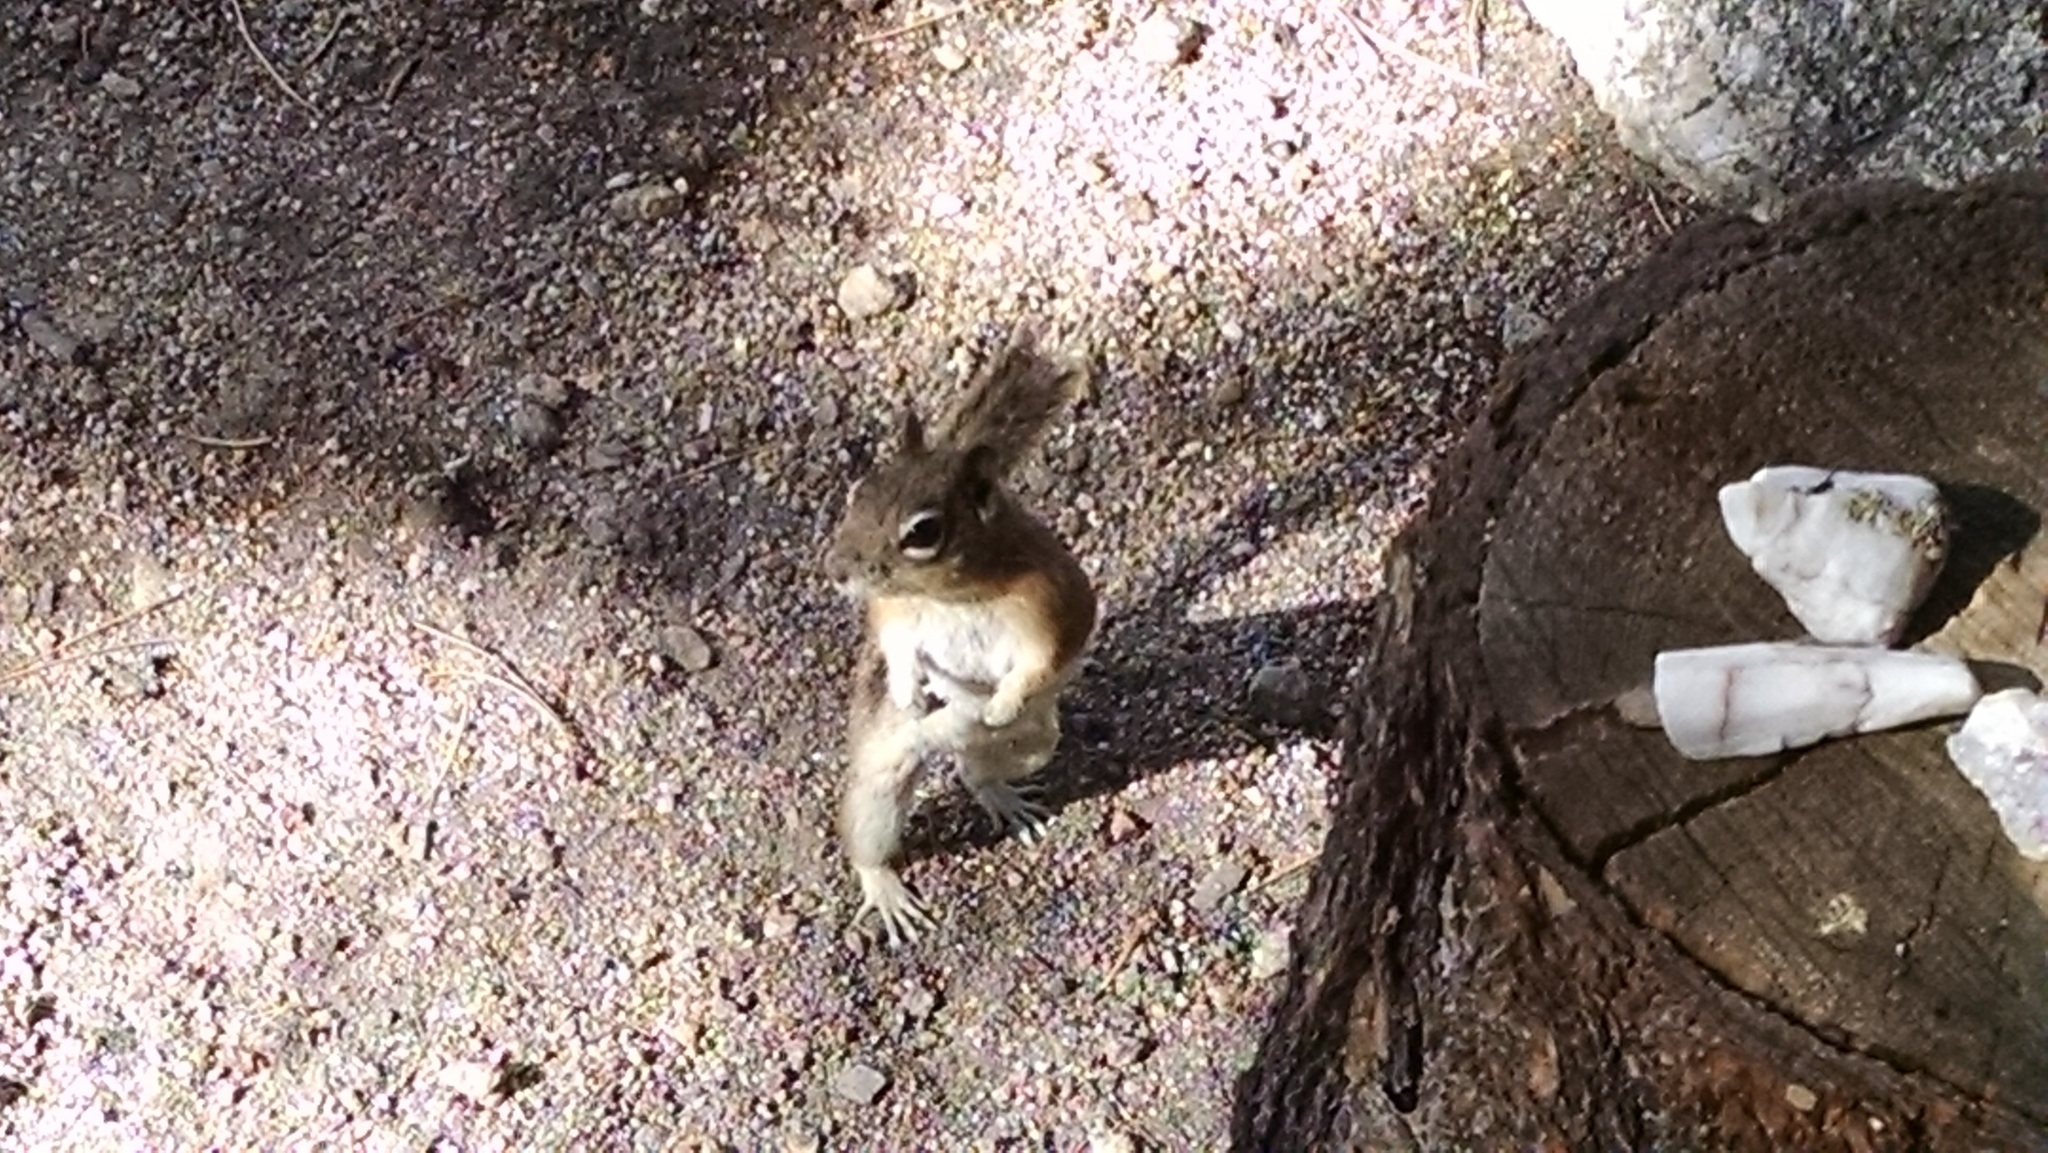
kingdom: Animalia
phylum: Chordata
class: Mammalia
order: Rodentia
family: Sciuridae
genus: Callospermophilus
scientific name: Callospermophilus lateralis
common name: Golden-mantled ground squirrel
